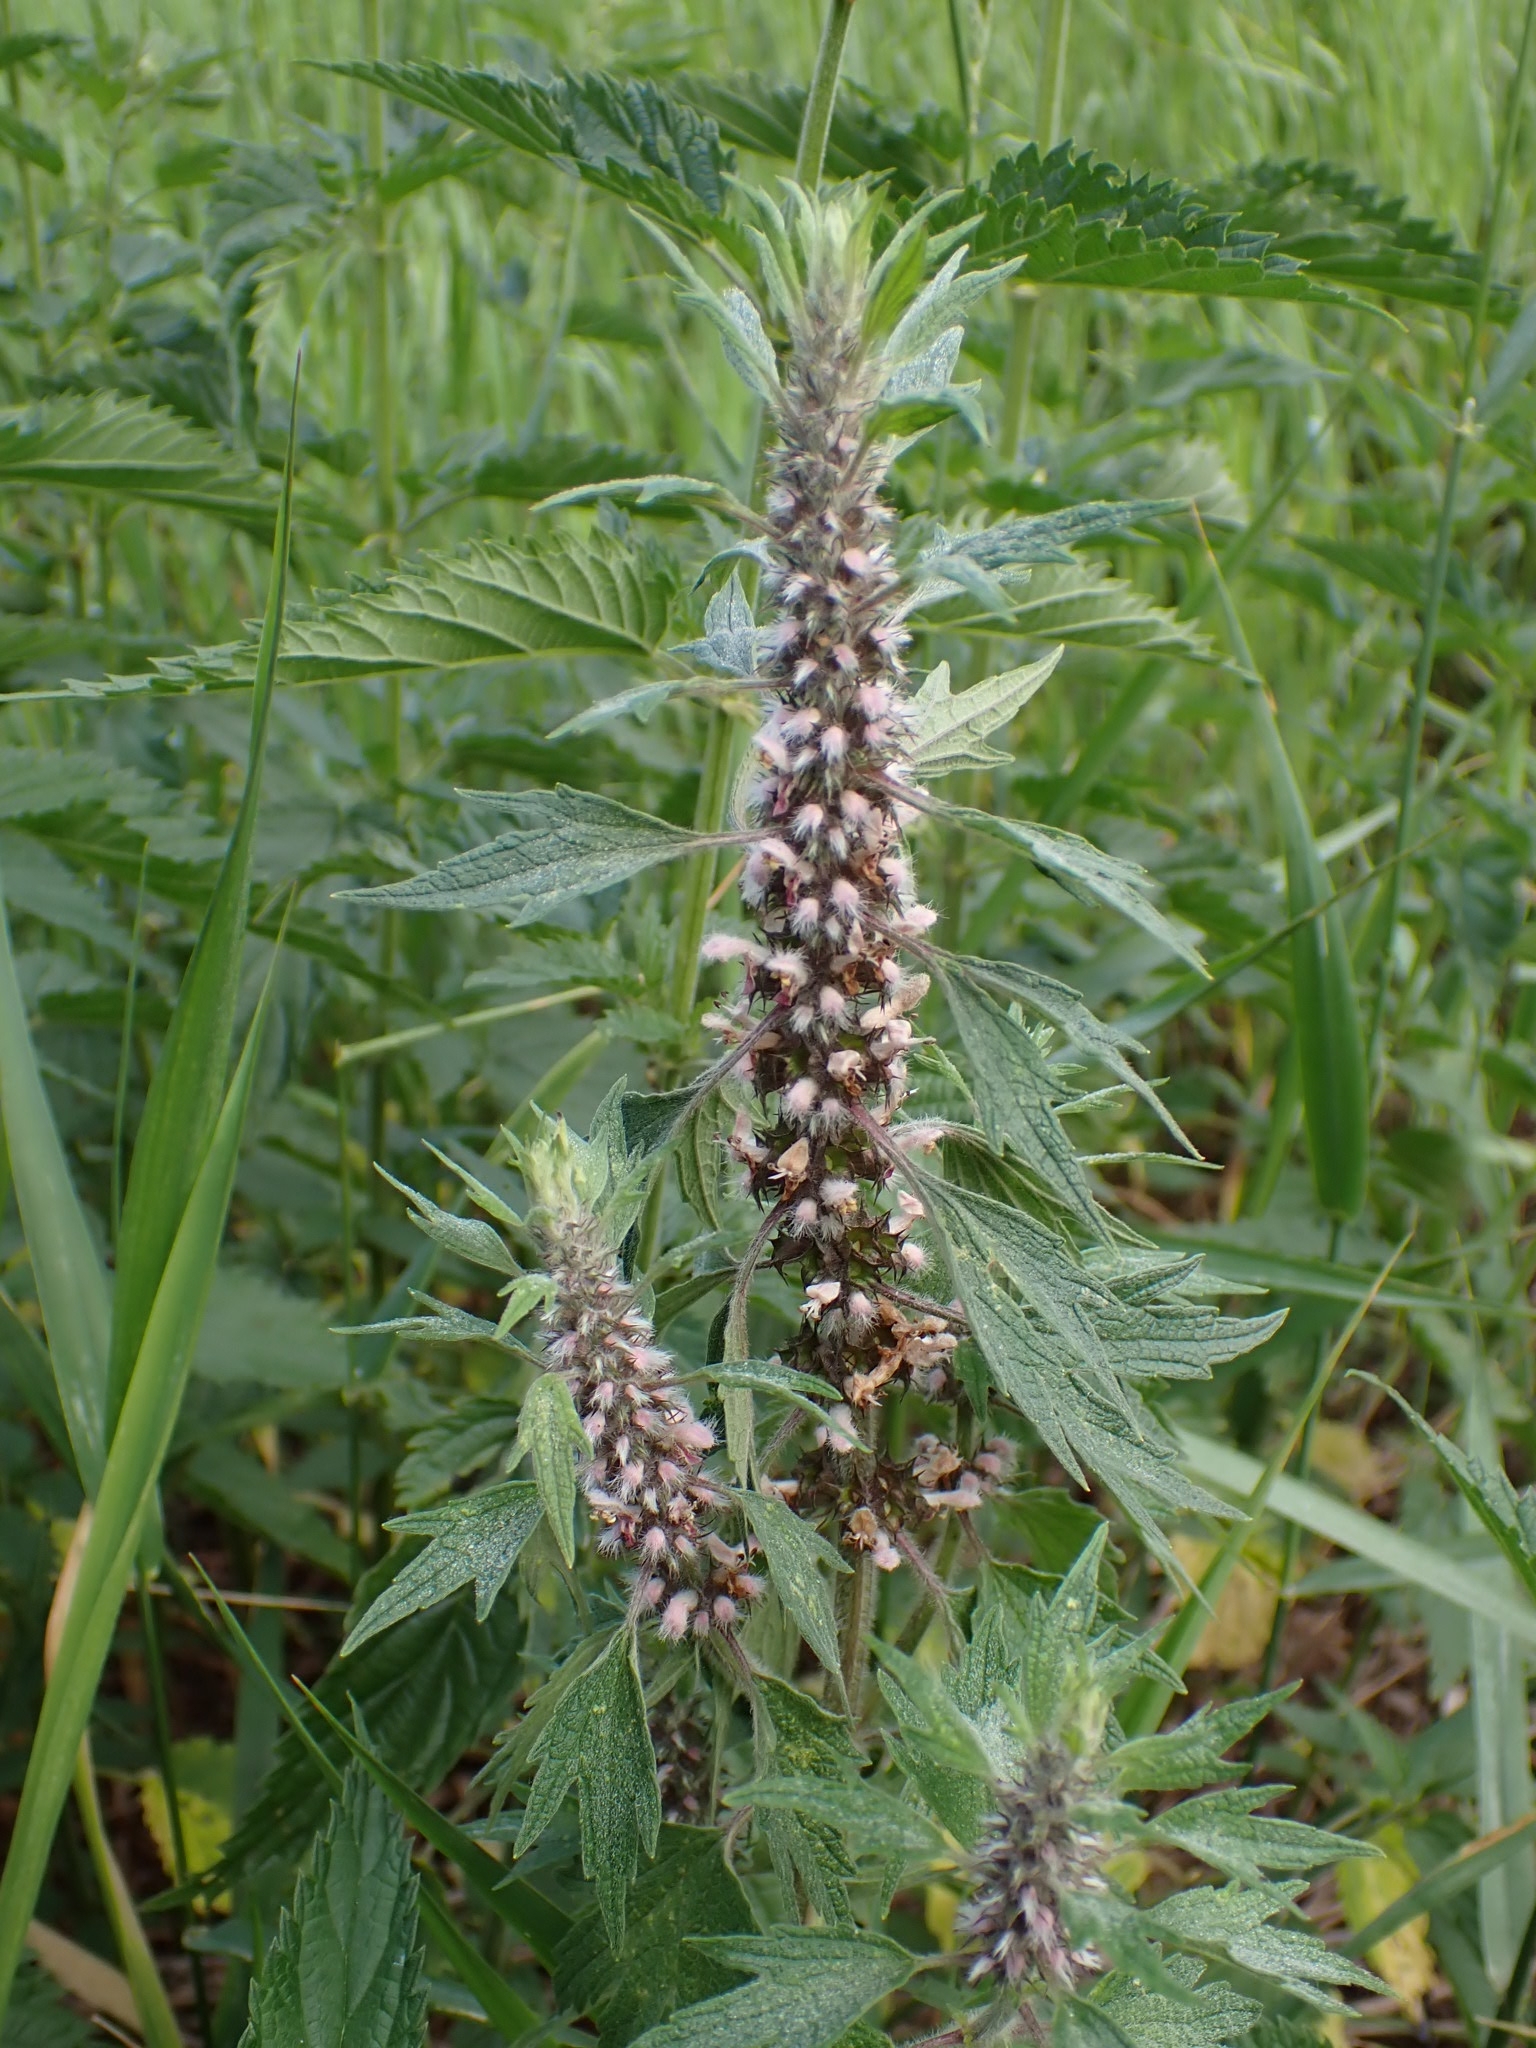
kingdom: Plantae
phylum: Tracheophyta
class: Magnoliopsida
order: Lamiales
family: Lamiaceae
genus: Leonurus
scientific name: Leonurus quinquelobatus
